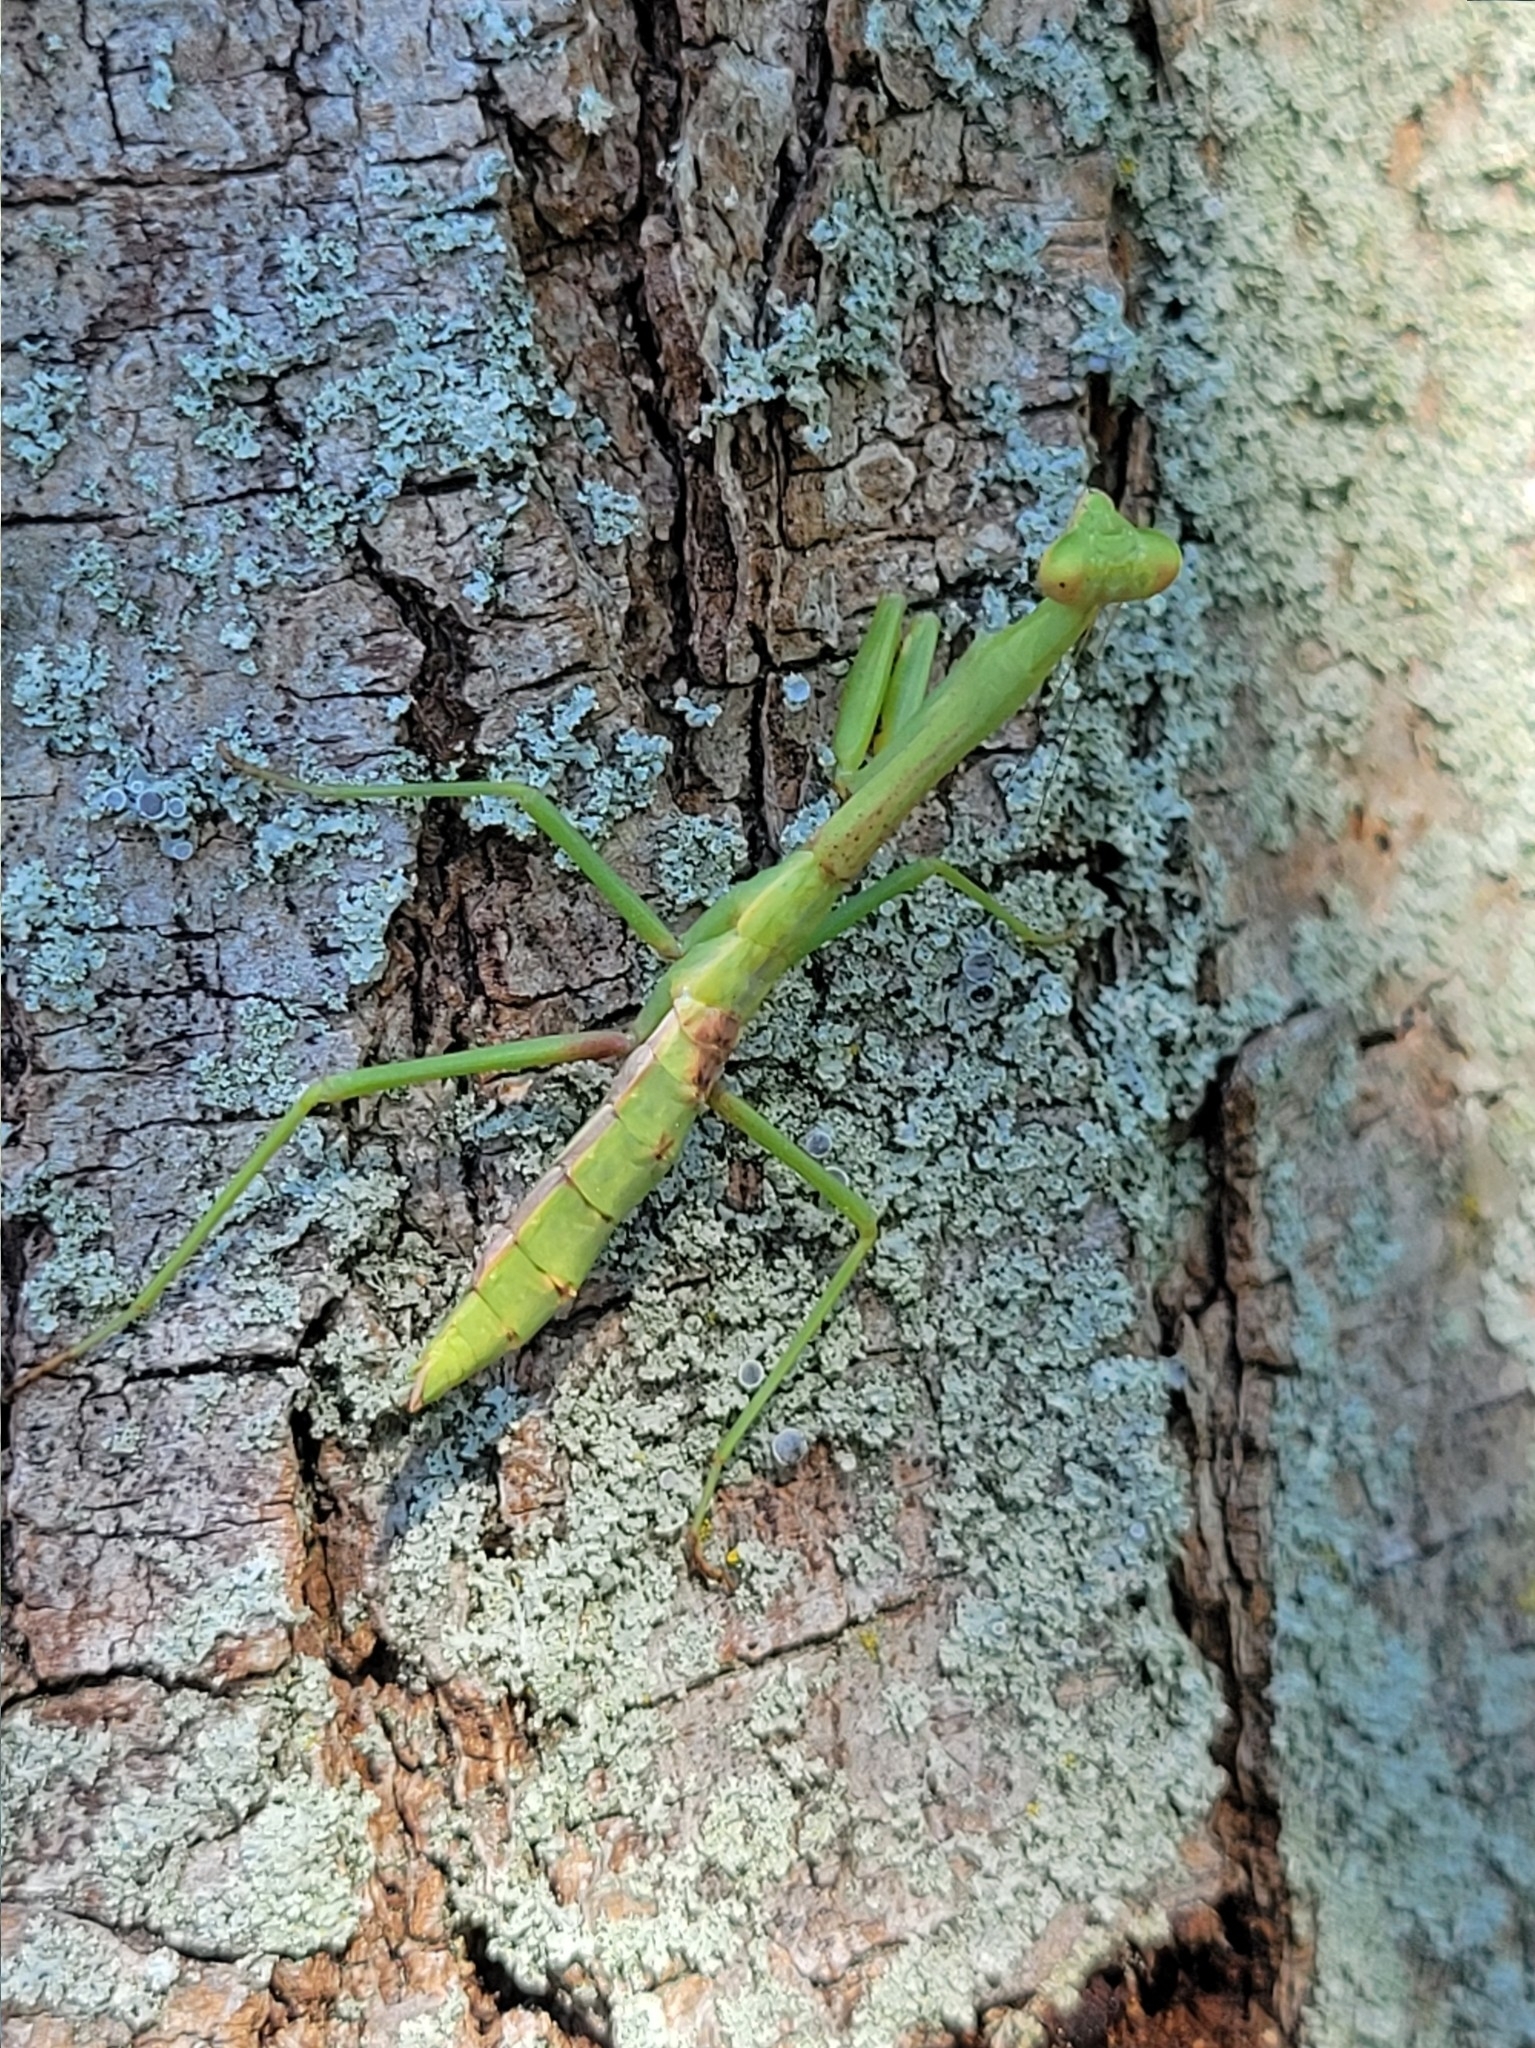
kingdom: Animalia
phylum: Arthropoda
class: Insecta
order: Mantodea
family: Mantidae
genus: Stagmomantis
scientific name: Stagmomantis carolina
